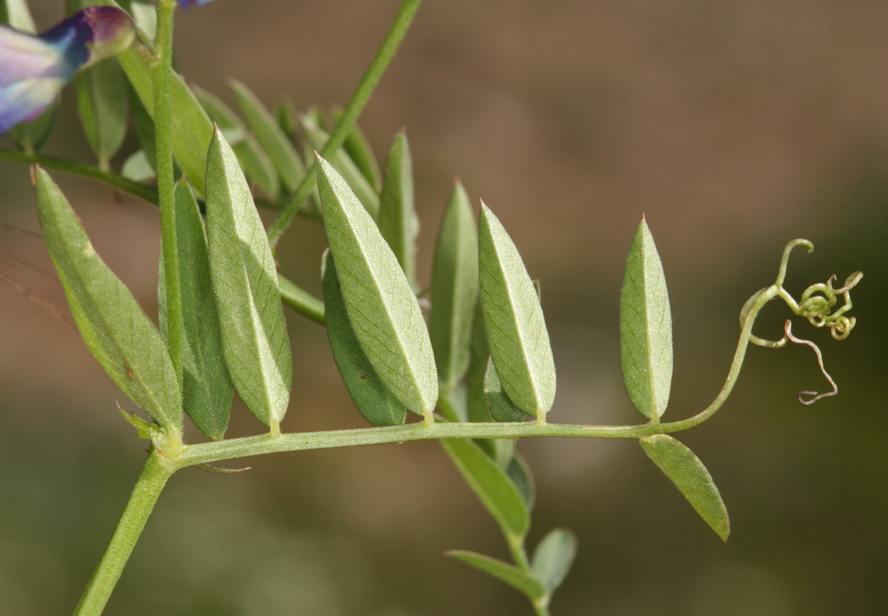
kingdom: Plantae
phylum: Tracheophyta
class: Magnoliopsida
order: Fabales
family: Fabaceae
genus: Vicia
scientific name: Vicia americana
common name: American vetch
